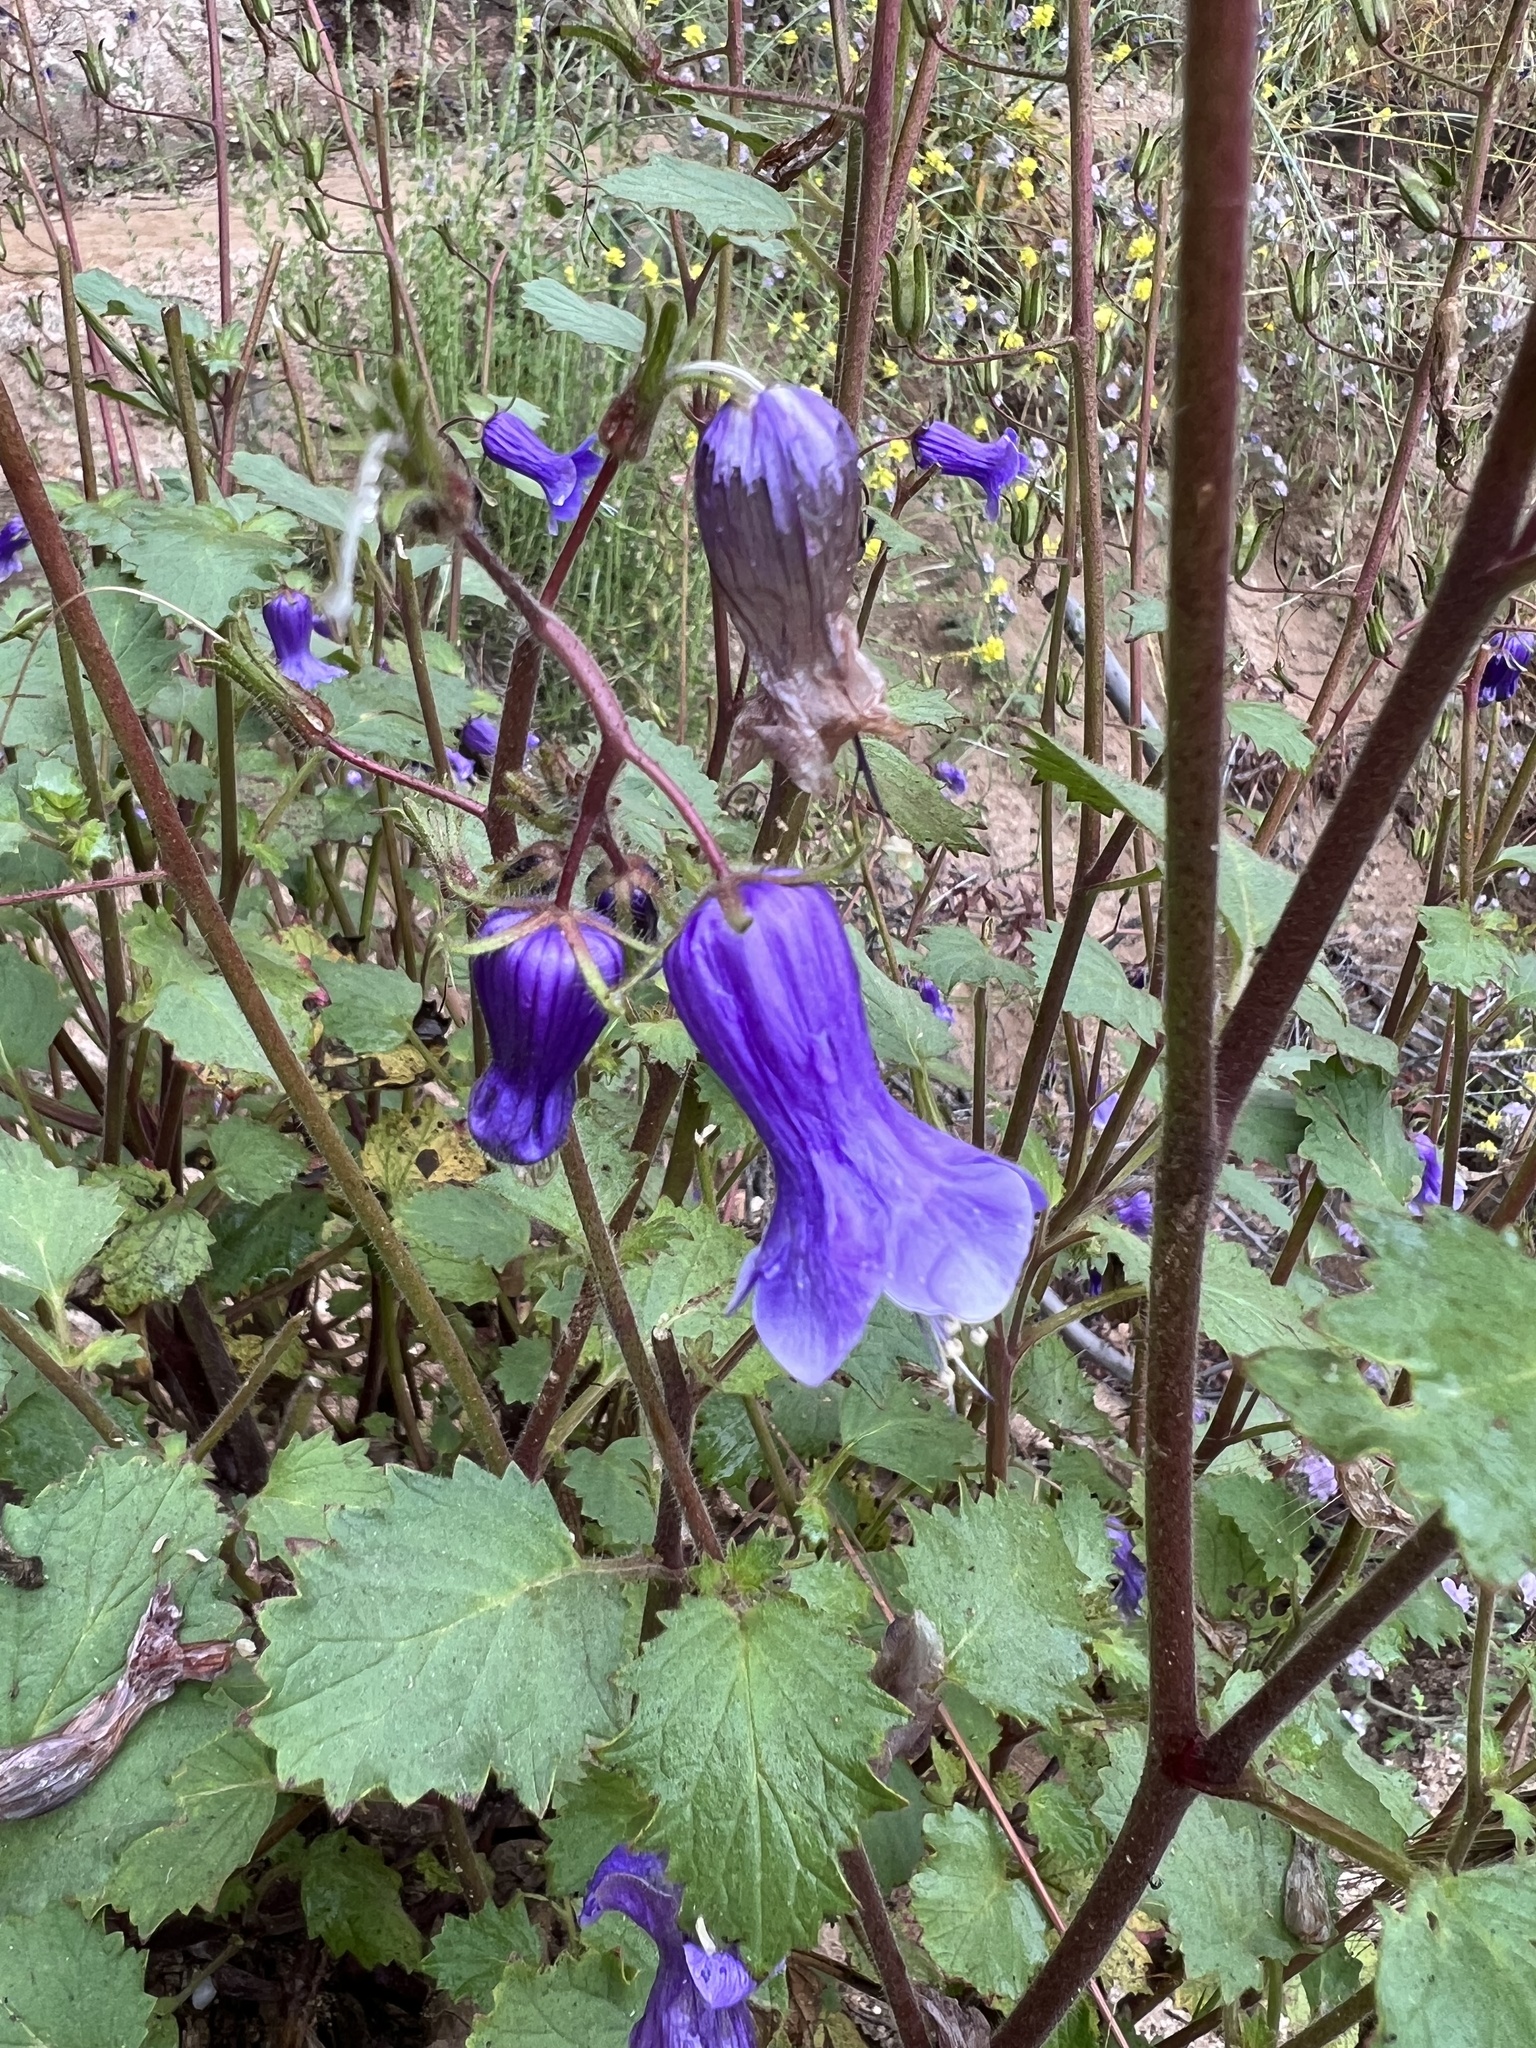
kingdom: Plantae
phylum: Tracheophyta
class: Magnoliopsida
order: Boraginales
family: Hydrophyllaceae
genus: Phacelia
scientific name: Phacelia minor
